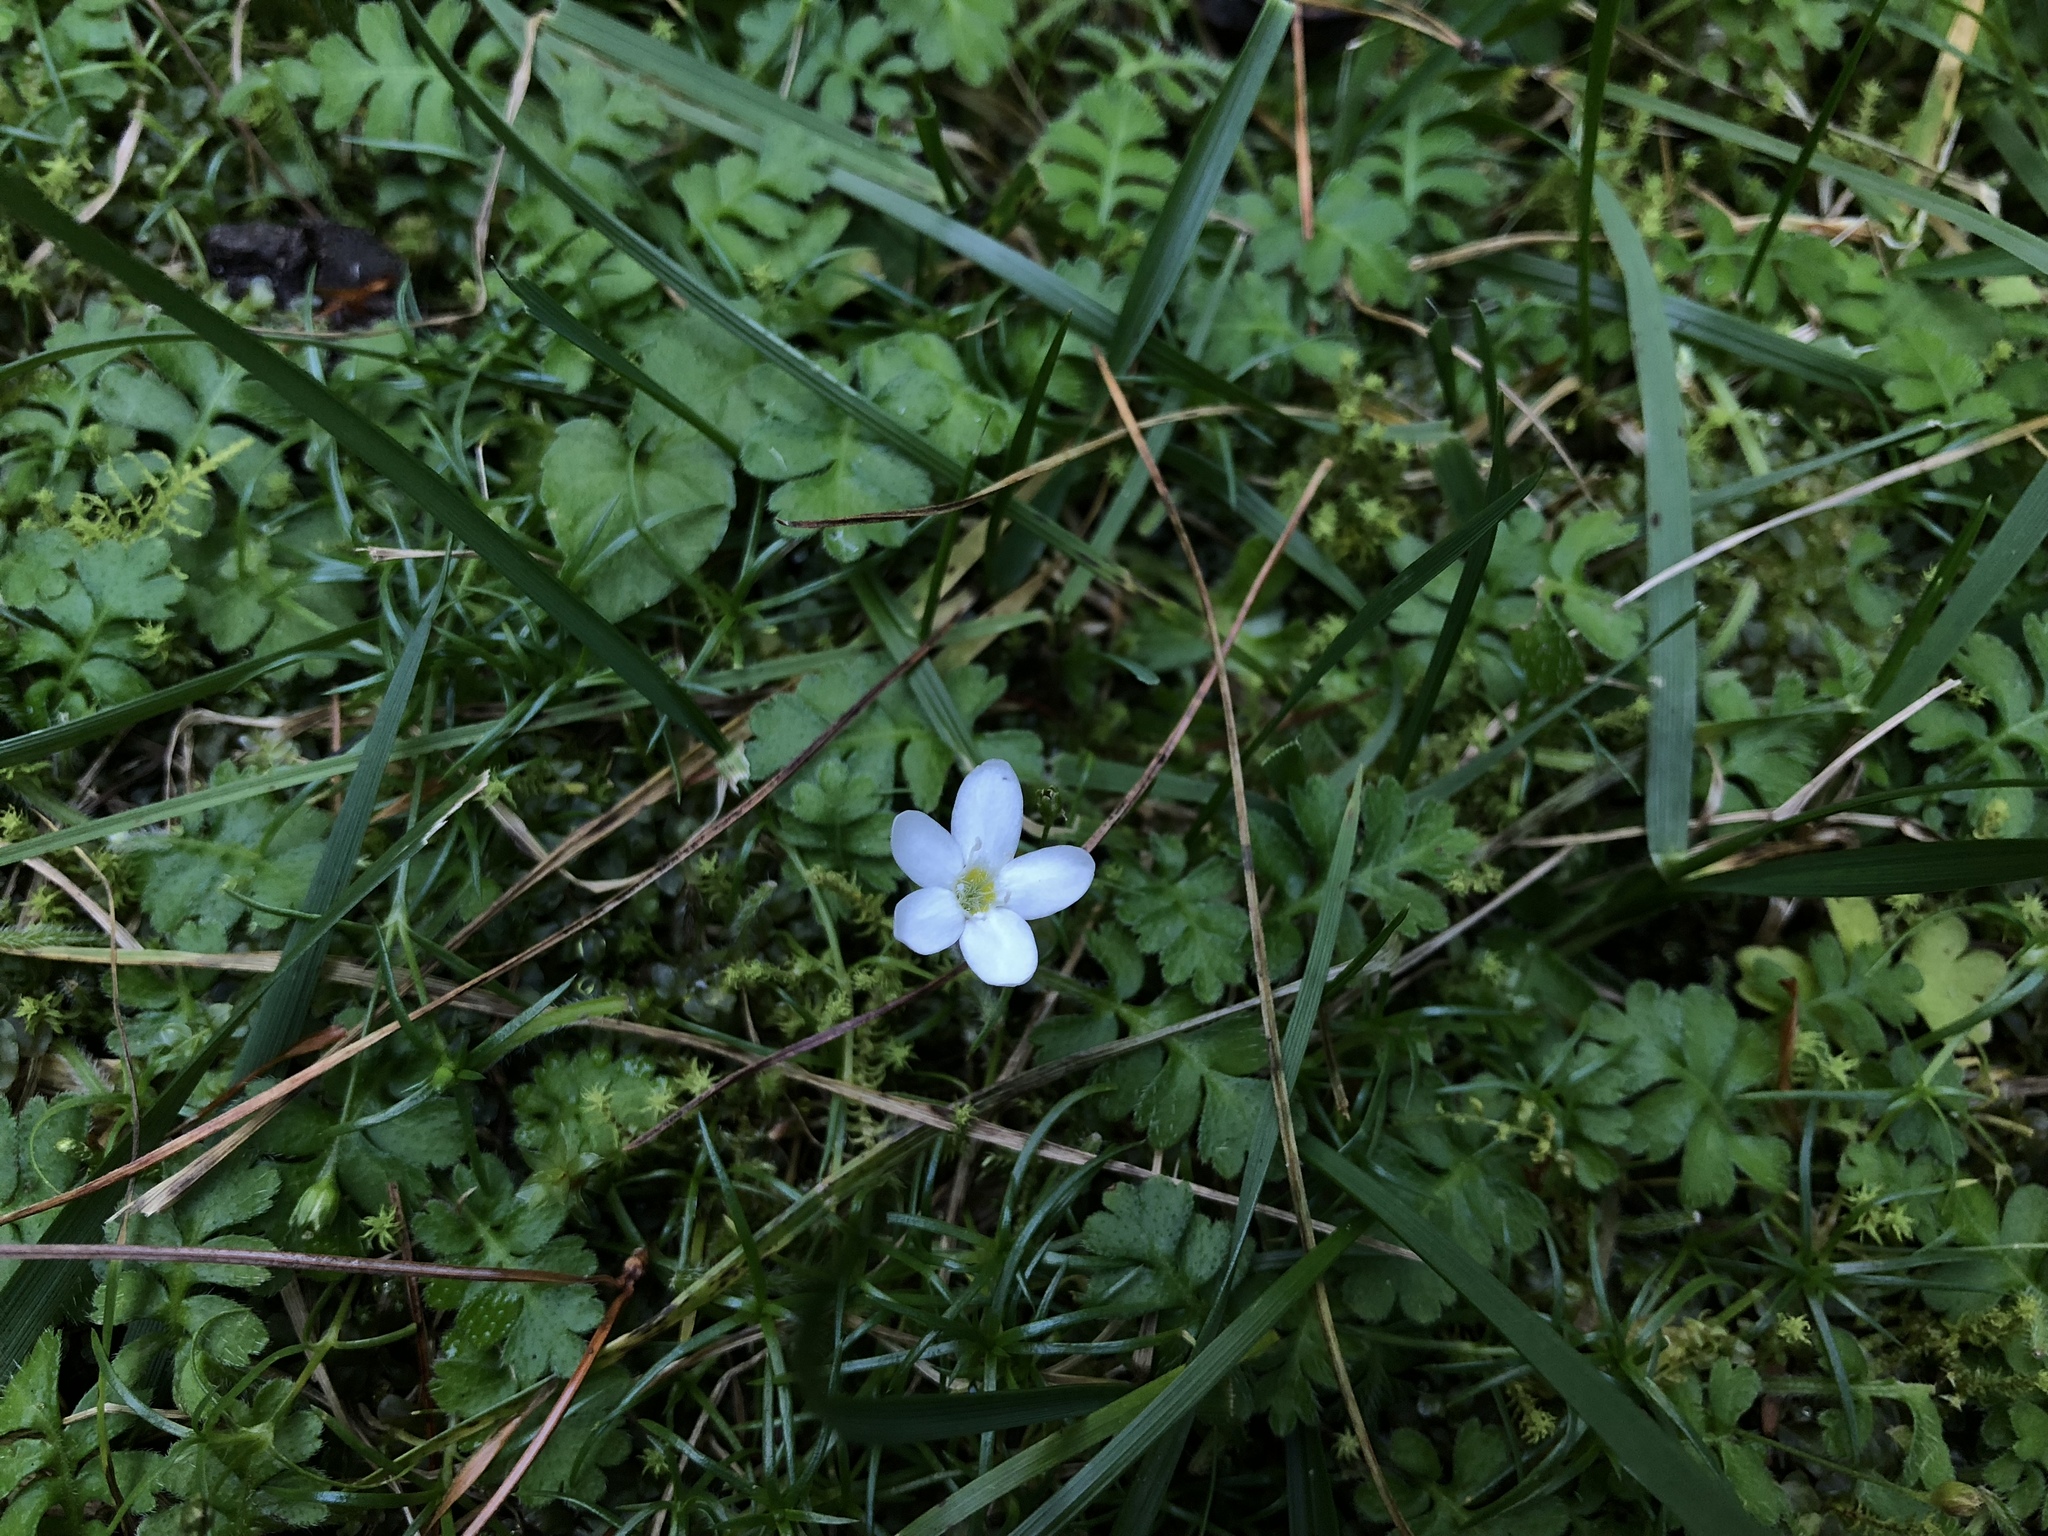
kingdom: Plantae
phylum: Tracheophyta
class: Magnoliopsida
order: Lamiales
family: Plantaginaceae
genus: Ellisiophyllum
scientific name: Ellisiophyllum pinnatum
